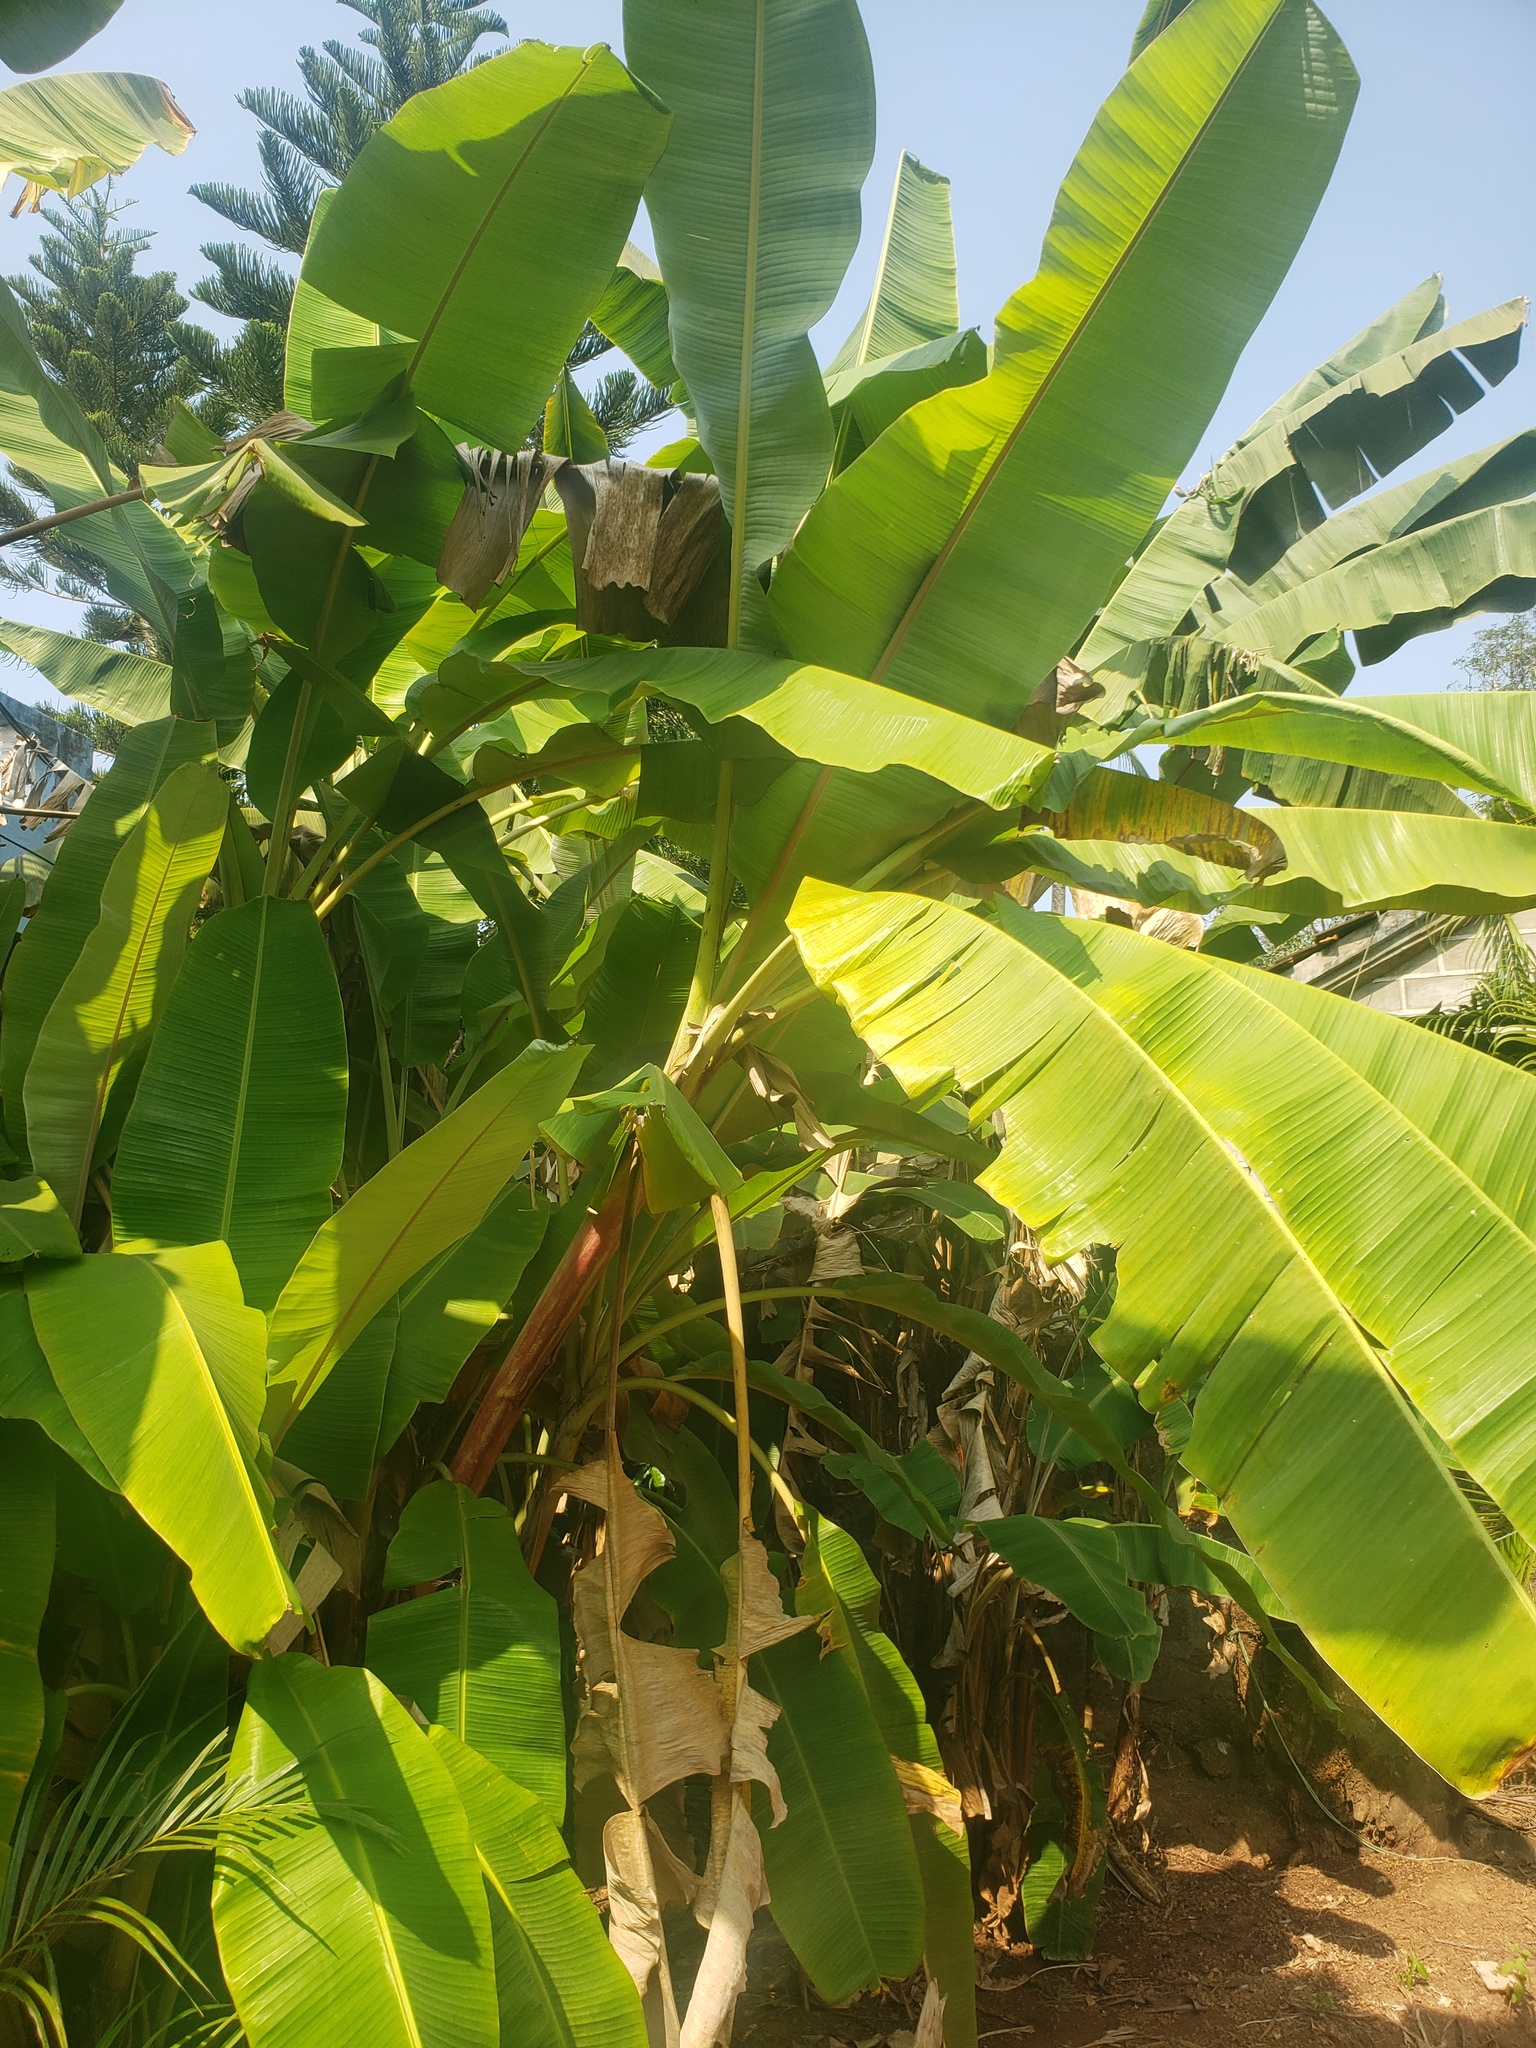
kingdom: Plantae
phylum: Tracheophyta
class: Liliopsida
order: Zingiberales
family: Musaceae
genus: Musa
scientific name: Musa paradisiaca
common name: French plantain
